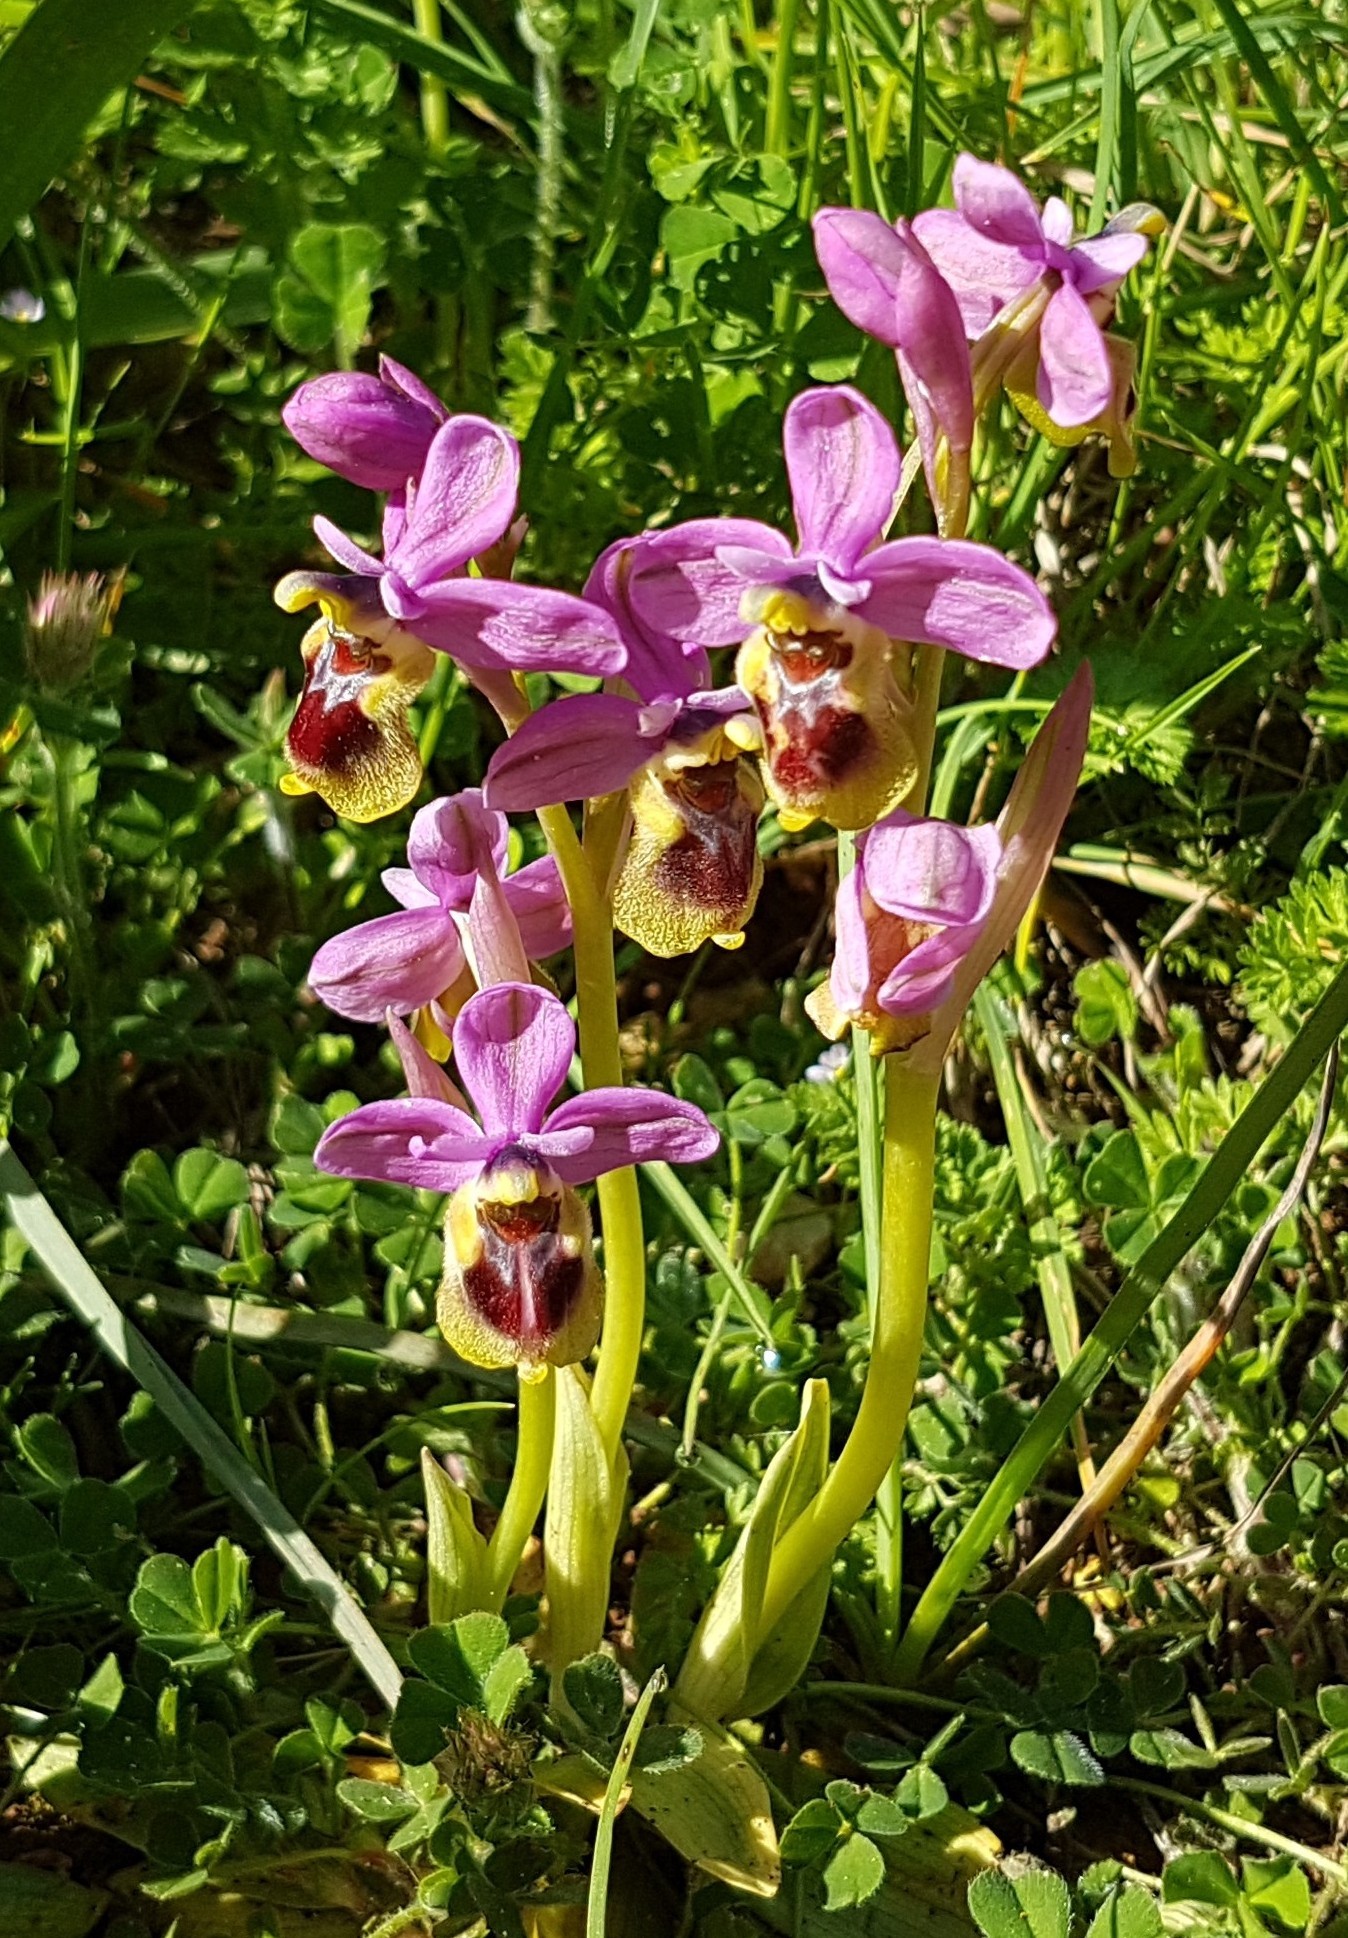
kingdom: Plantae
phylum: Tracheophyta
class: Liliopsida
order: Asparagales
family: Orchidaceae
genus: Ophrys
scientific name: Ophrys tenthredinifera
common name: Sawfly orchid
